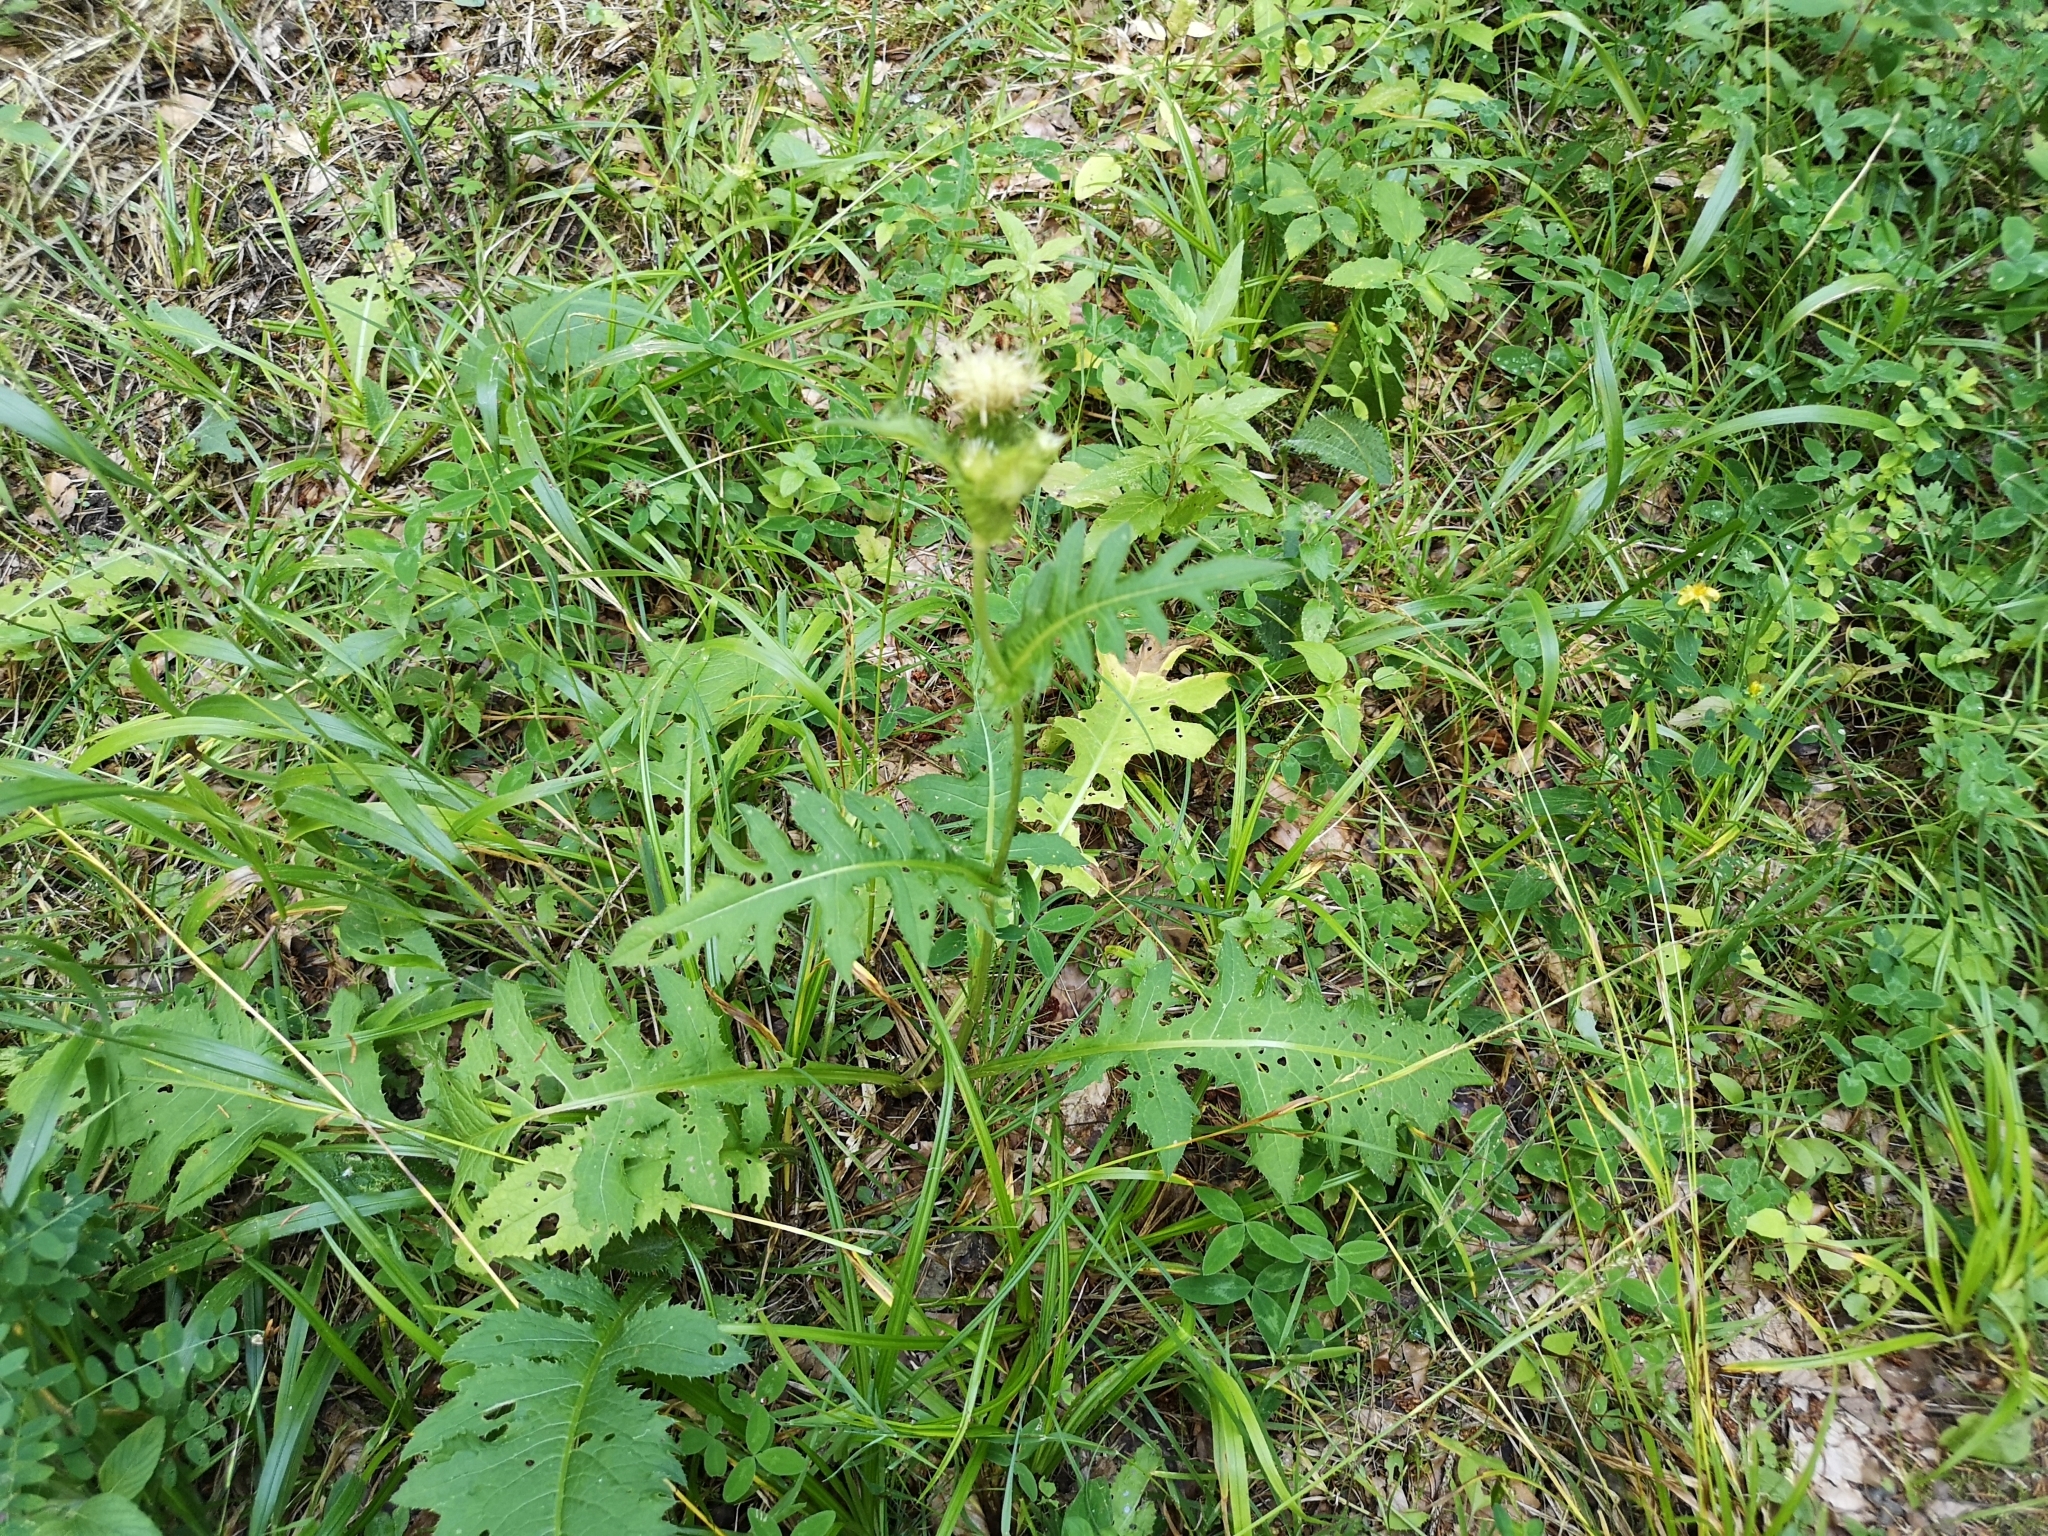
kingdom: Plantae
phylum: Tracheophyta
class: Magnoliopsida
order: Asterales
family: Asteraceae
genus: Cirsium
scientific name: Cirsium oleraceum
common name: Cabbage thistle
